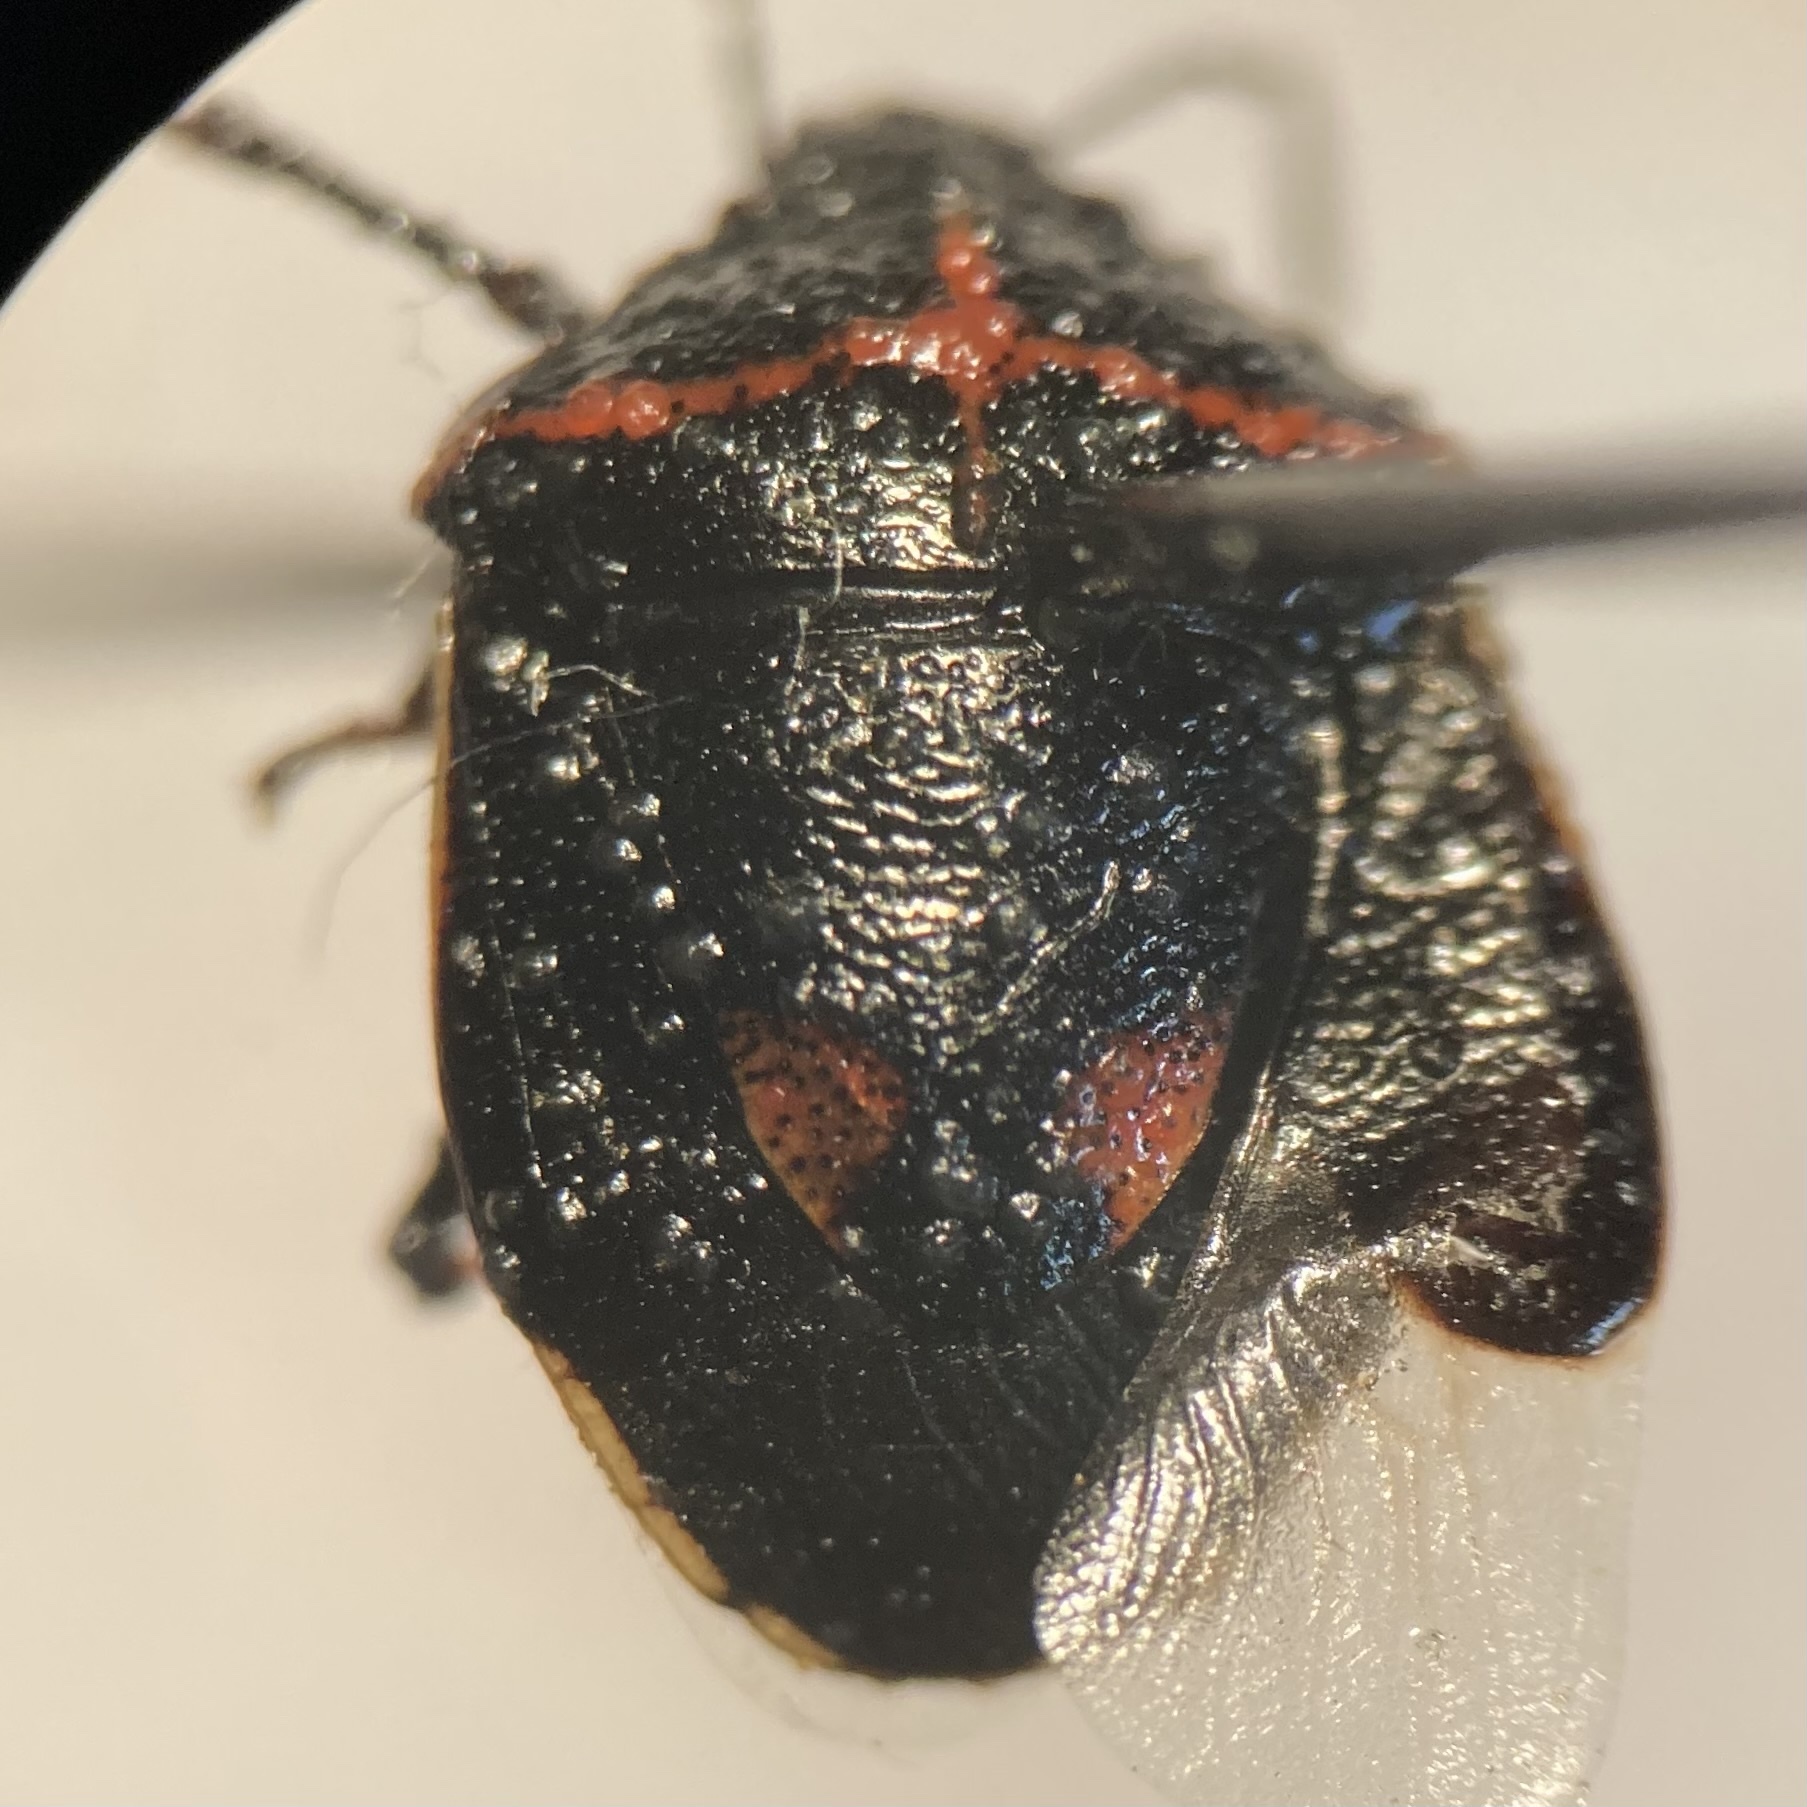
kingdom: Animalia
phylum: Arthropoda
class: Insecta
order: Hemiptera
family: Pentatomidae
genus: Cosmopepla
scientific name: Cosmopepla lintneriana
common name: Twice-stabbed stink bug
